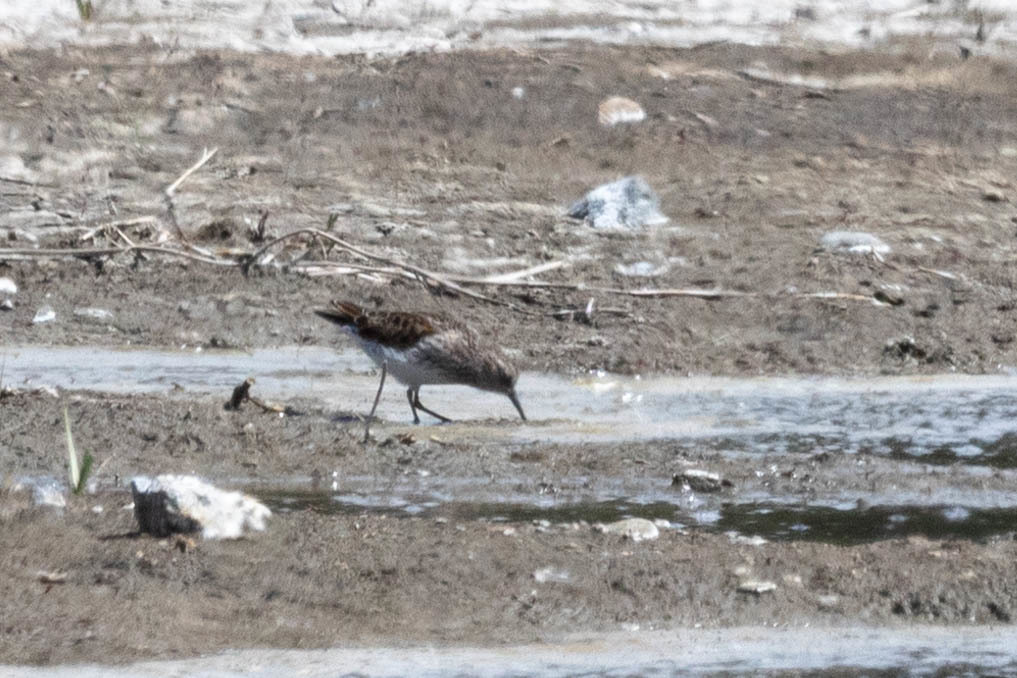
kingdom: Animalia
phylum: Chordata
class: Aves
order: Charadriiformes
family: Scolopacidae
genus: Calidris
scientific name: Calidris minutilla
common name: Least sandpiper
